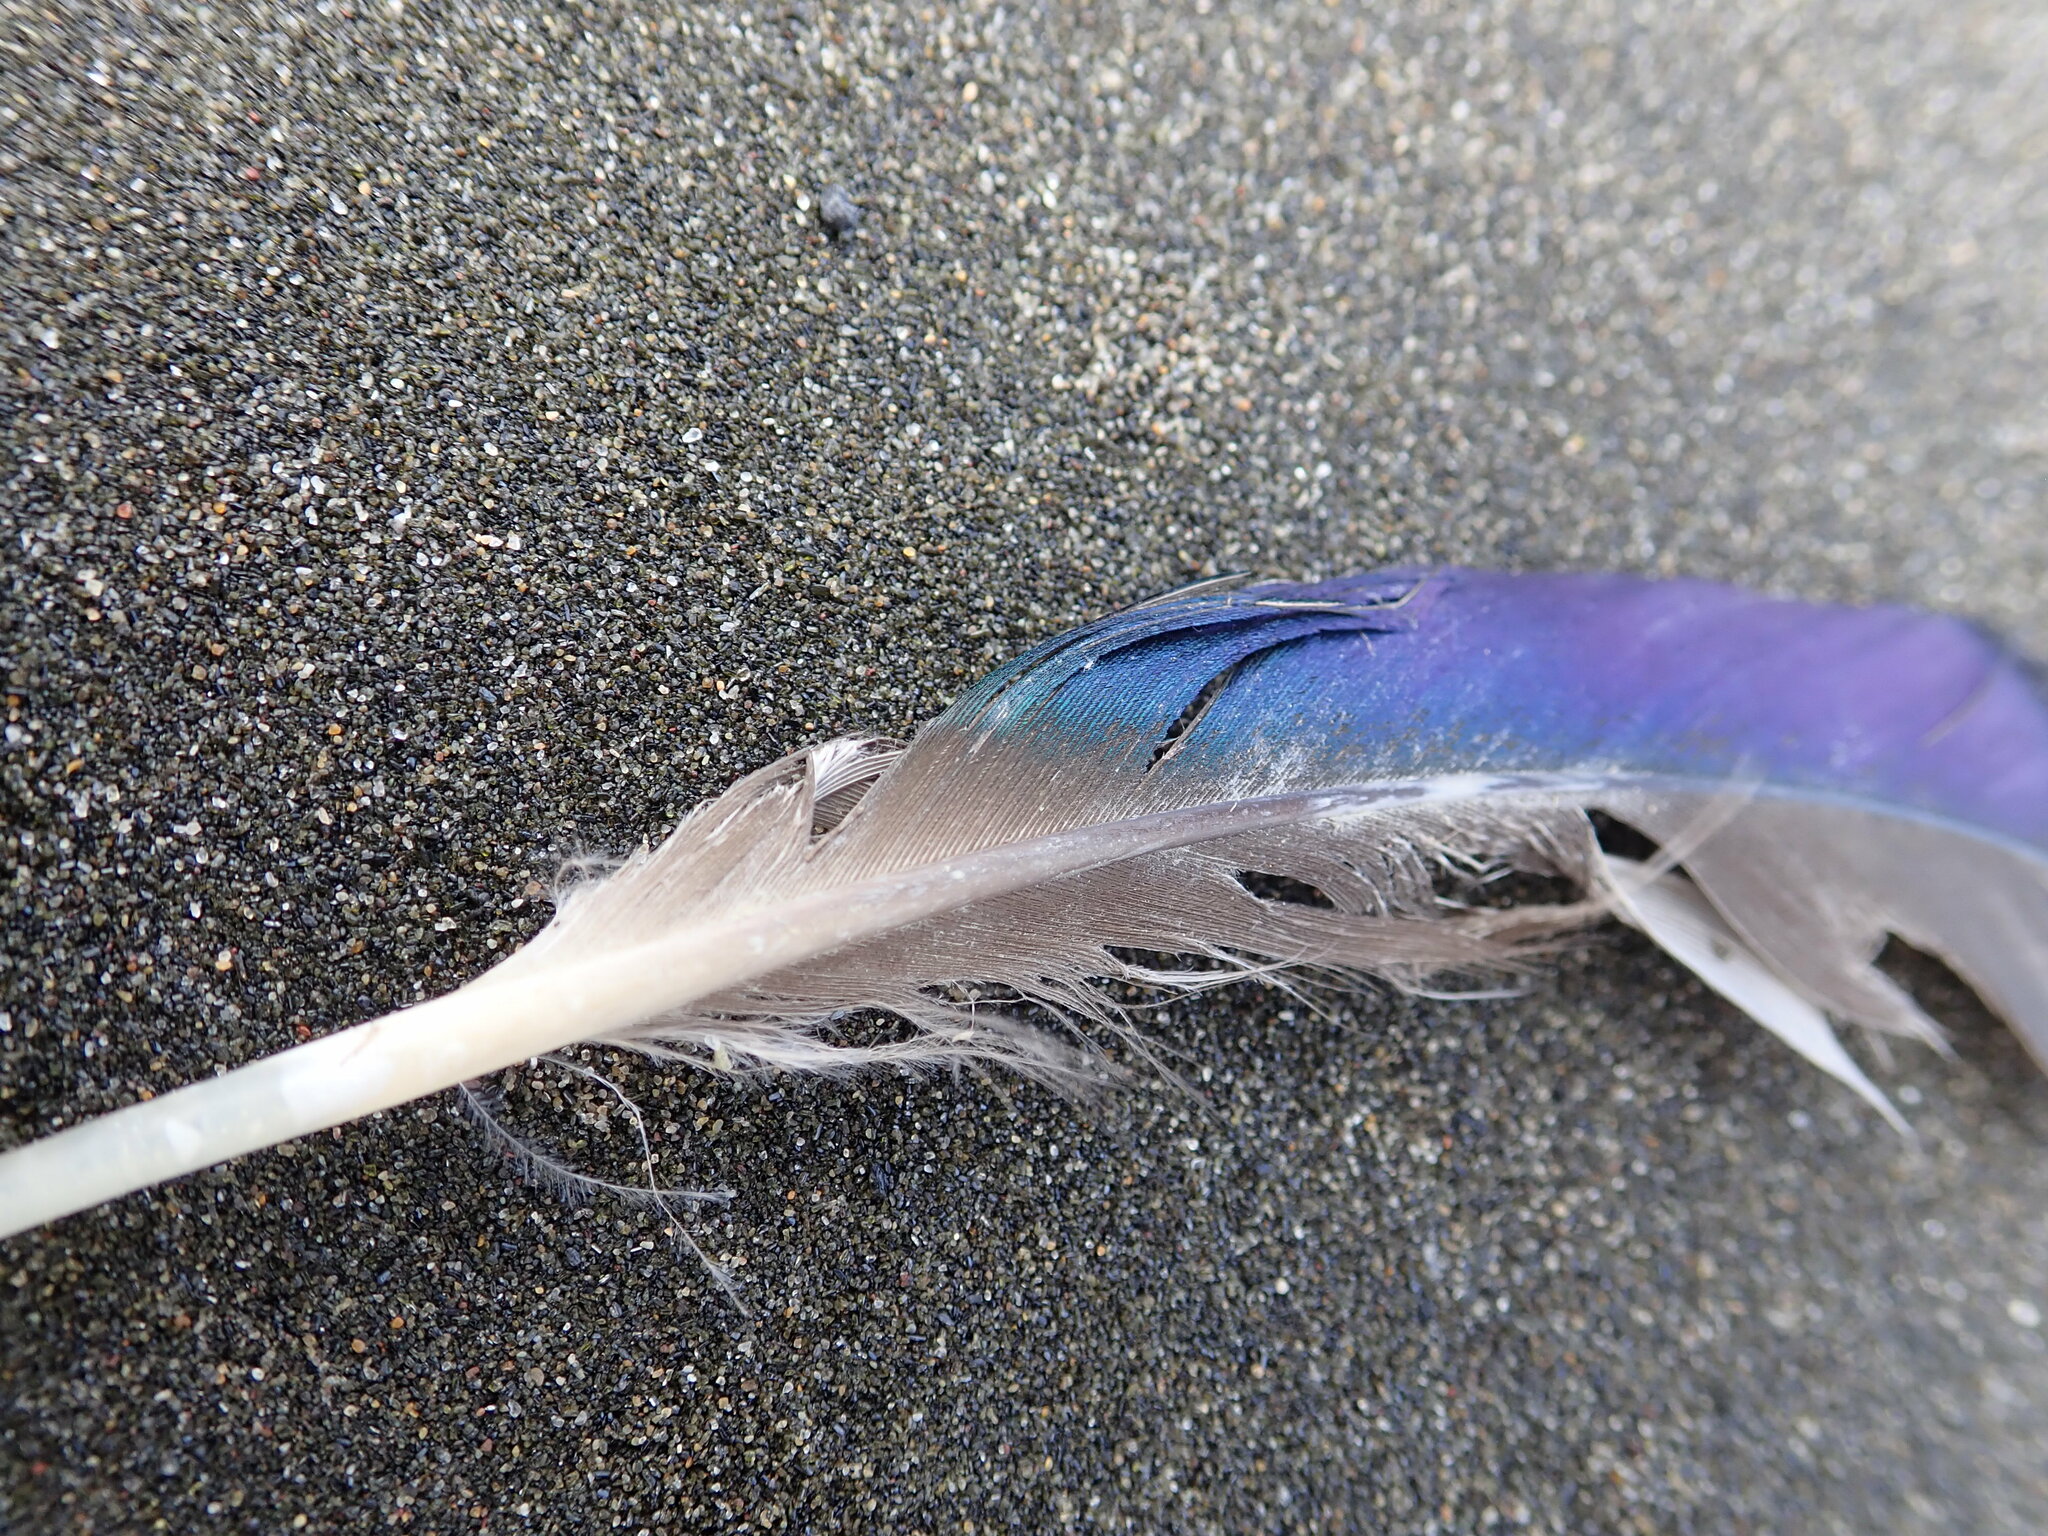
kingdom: Animalia
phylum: Chordata
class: Aves
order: Anseriformes
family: Anatidae
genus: Anas
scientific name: Anas platyrhynchos
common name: Mallard
